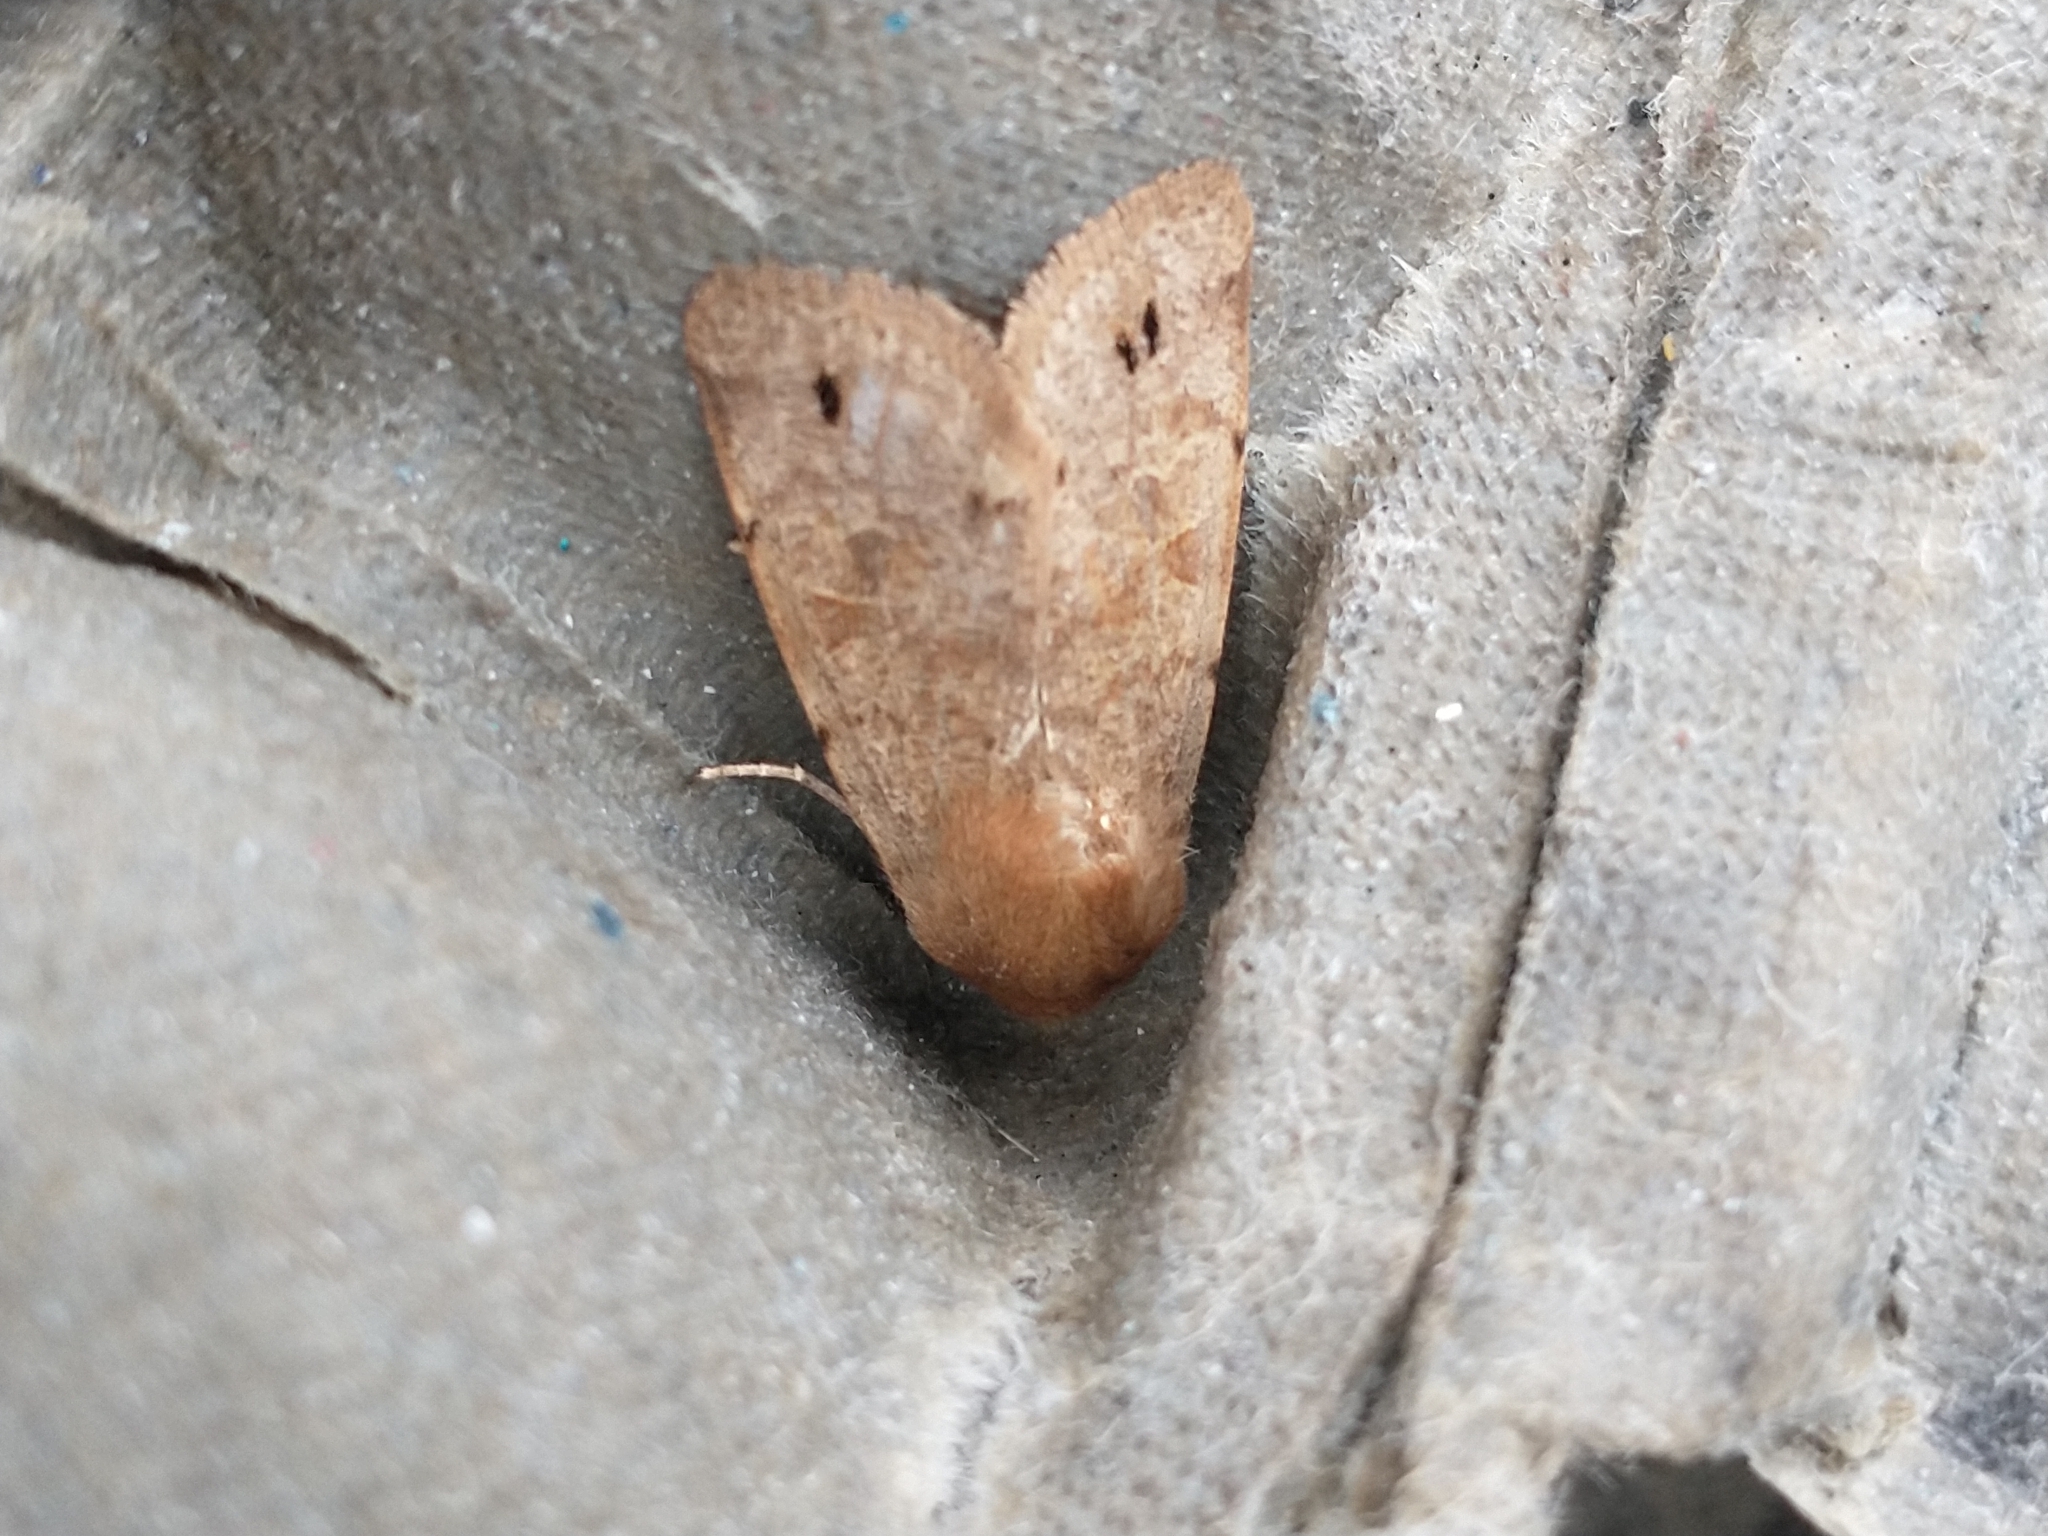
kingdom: Animalia
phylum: Arthropoda
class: Insecta
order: Lepidoptera
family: Noctuidae
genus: Anorthoa
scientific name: Anorthoa munda
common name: Twin-spotted quaker
